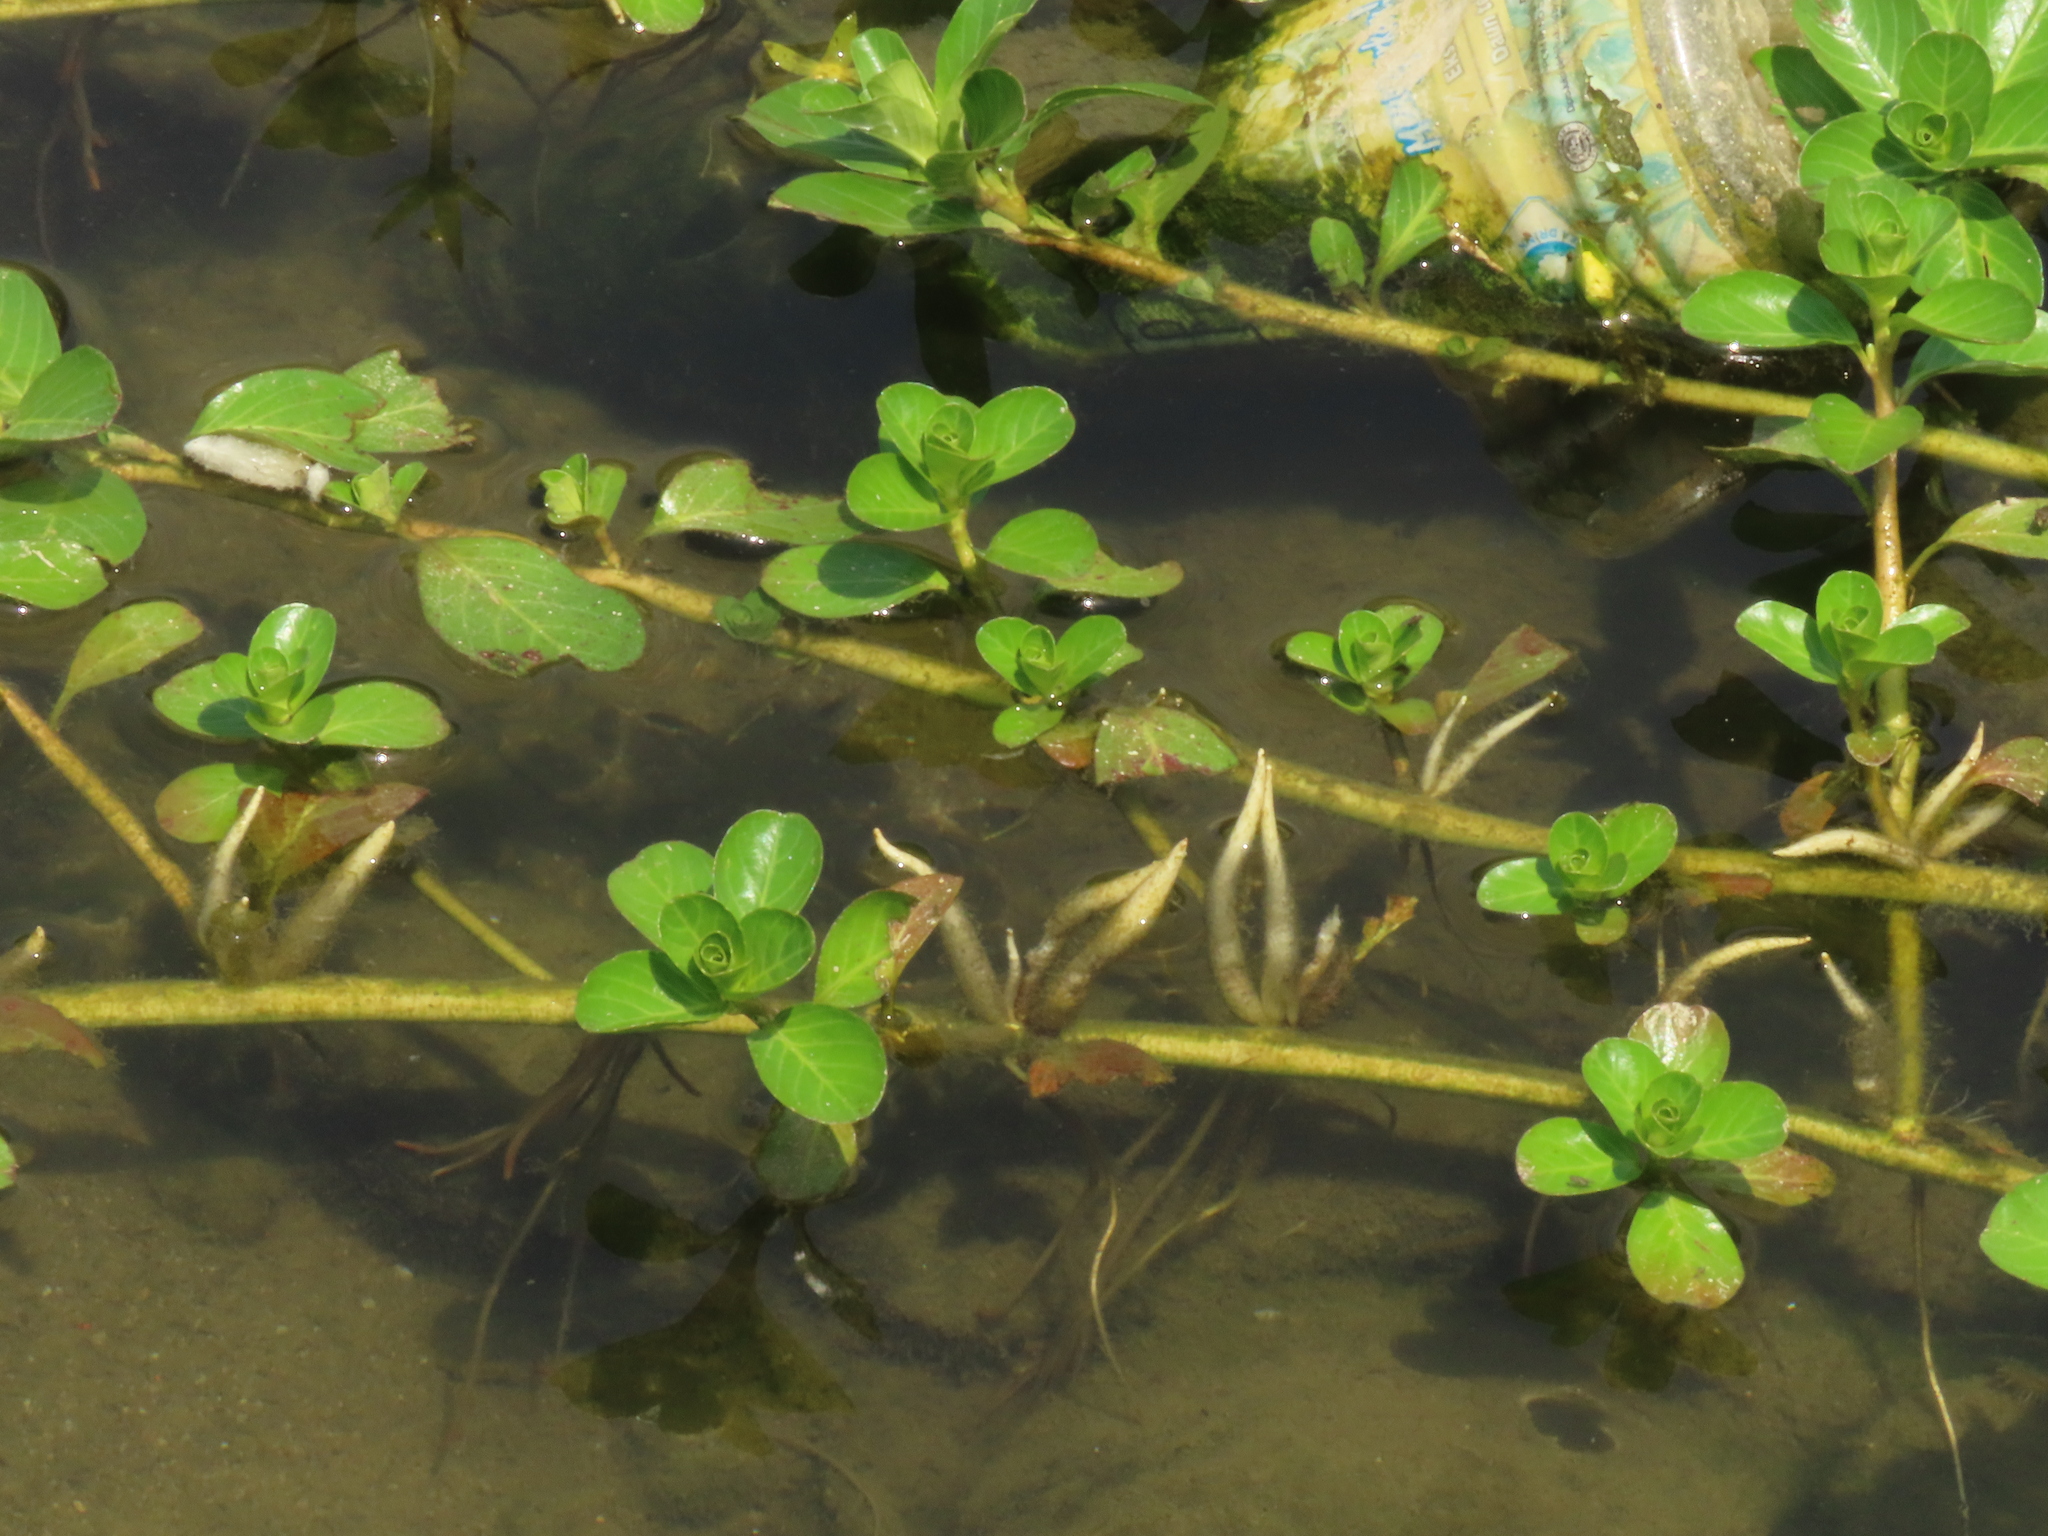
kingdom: Plantae
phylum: Tracheophyta
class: Magnoliopsida
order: Myrtales
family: Onagraceae
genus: Ludwigia
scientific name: Ludwigia taiwanensis
